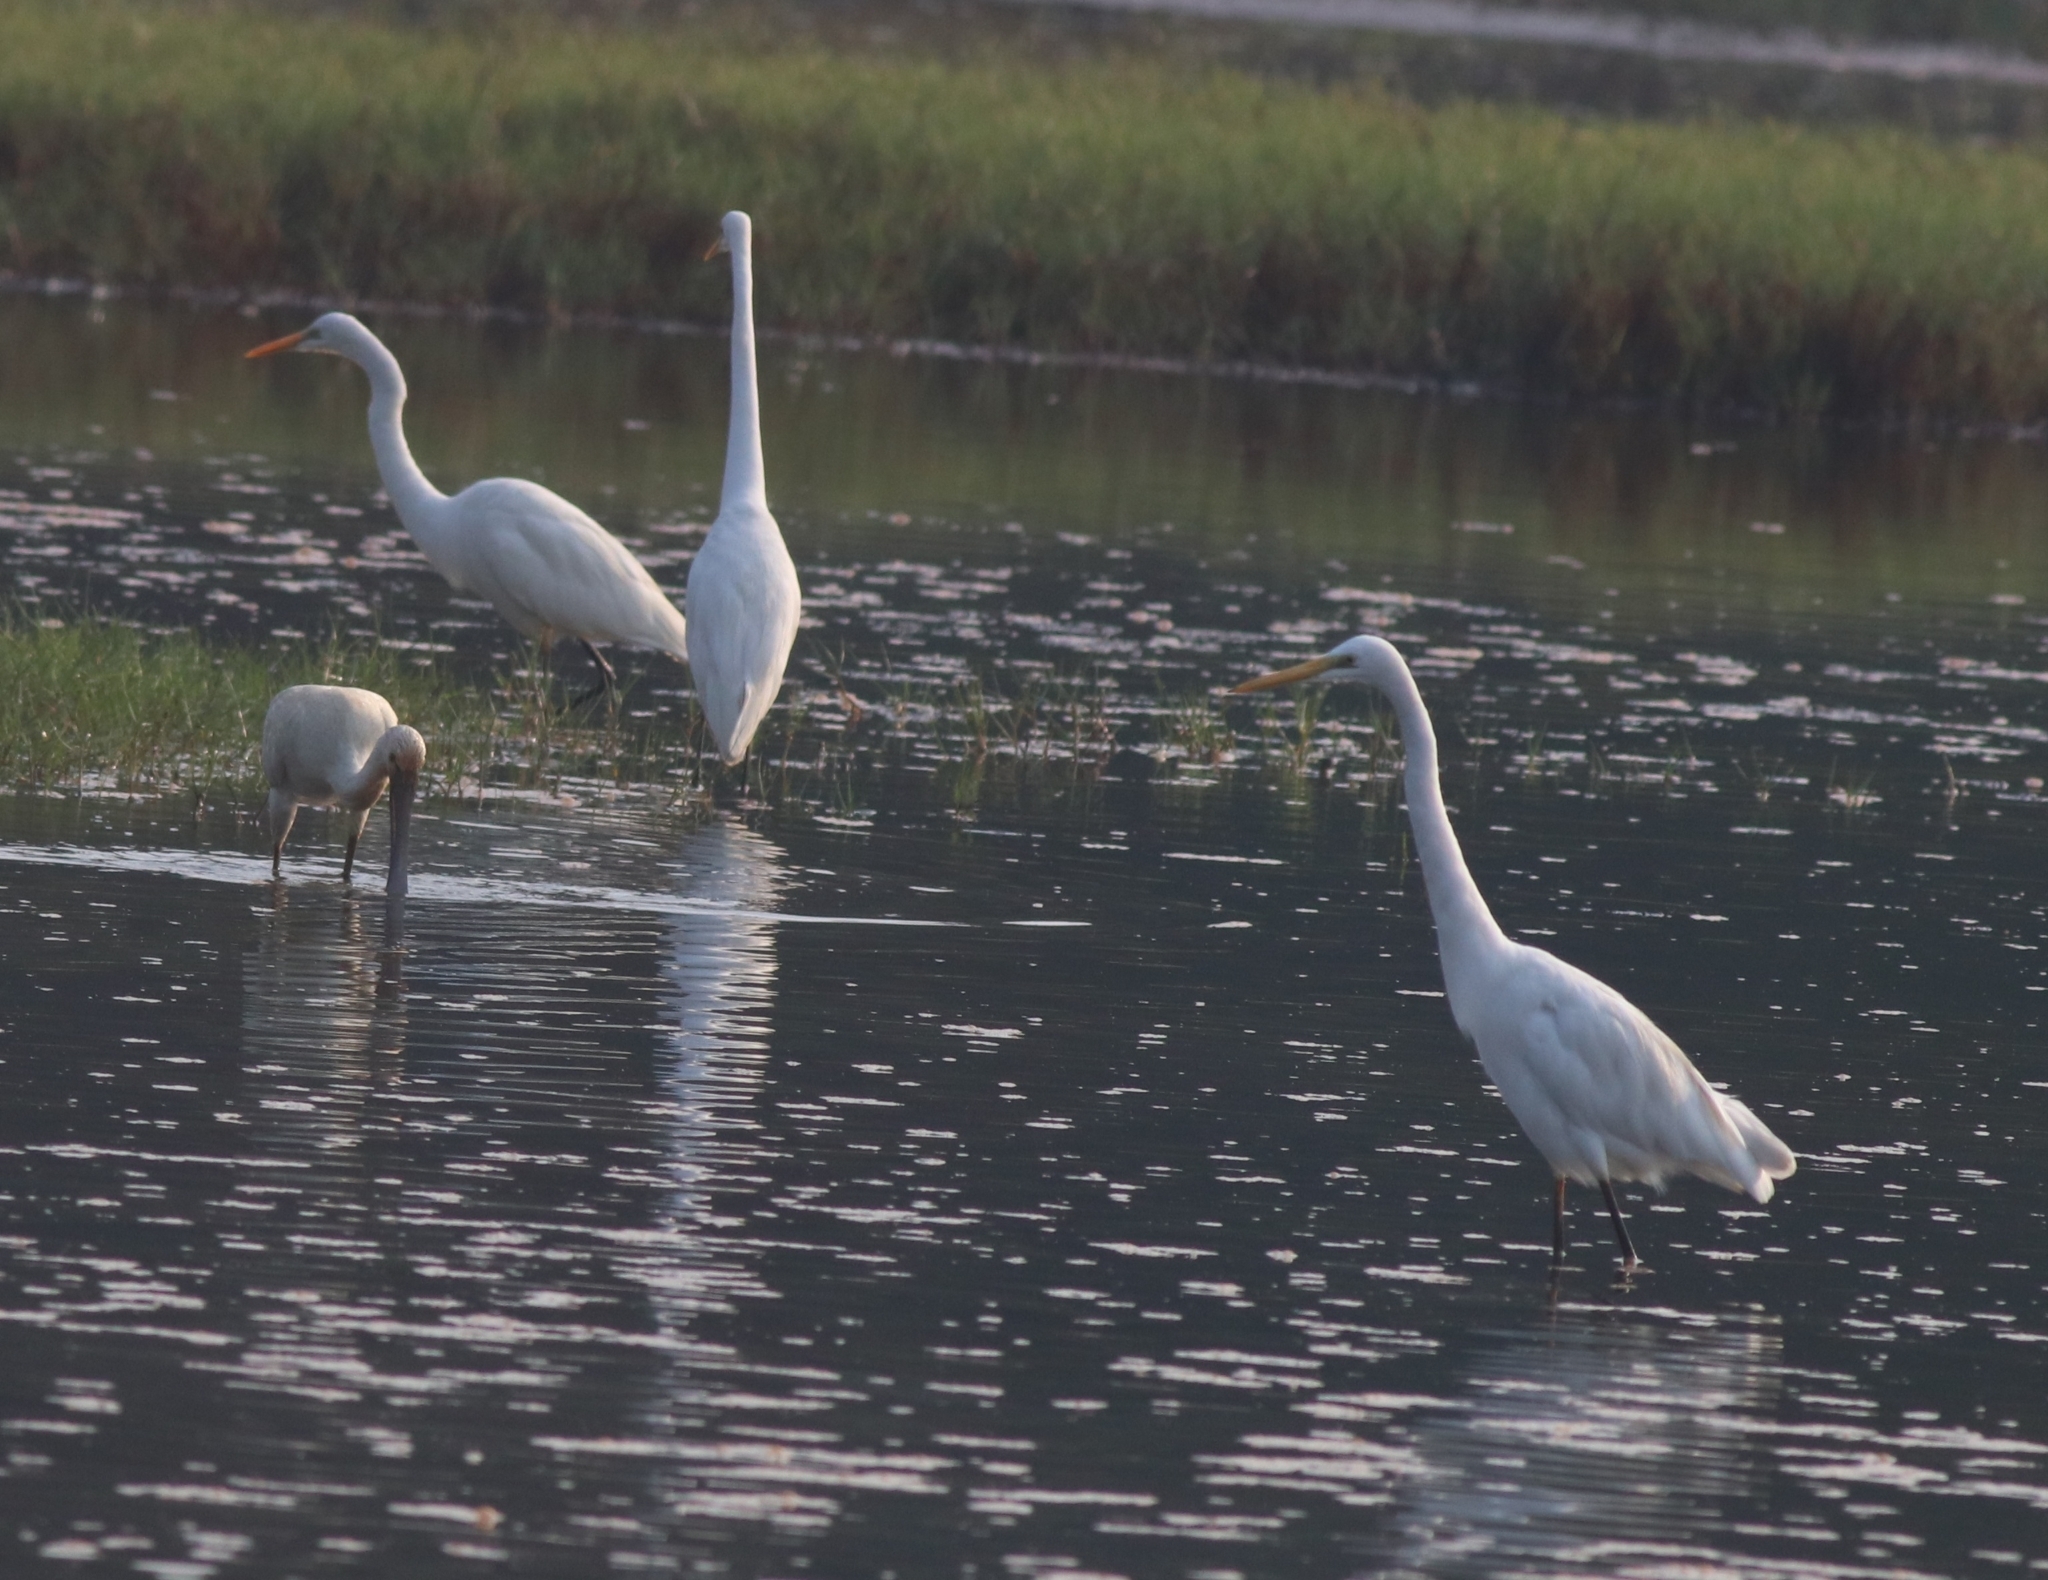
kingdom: Animalia
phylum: Chordata
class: Aves
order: Pelecaniformes
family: Ardeidae
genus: Ardea
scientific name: Ardea alba
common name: Great egret
